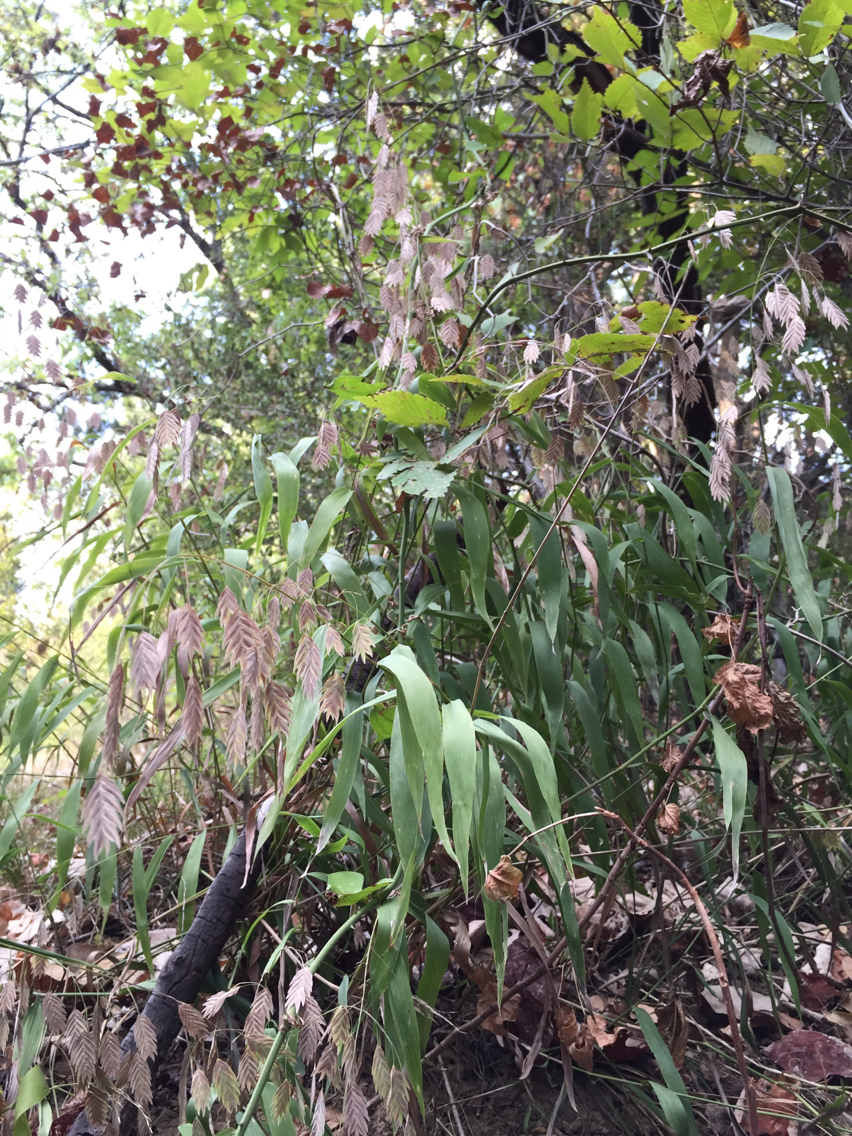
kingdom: Plantae
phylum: Tracheophyta
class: Liliopsida
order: Poales
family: Poaceae
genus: Chasmanthium
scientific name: Chasmanthium latifolium
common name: Broad-leaved chasmanthium
